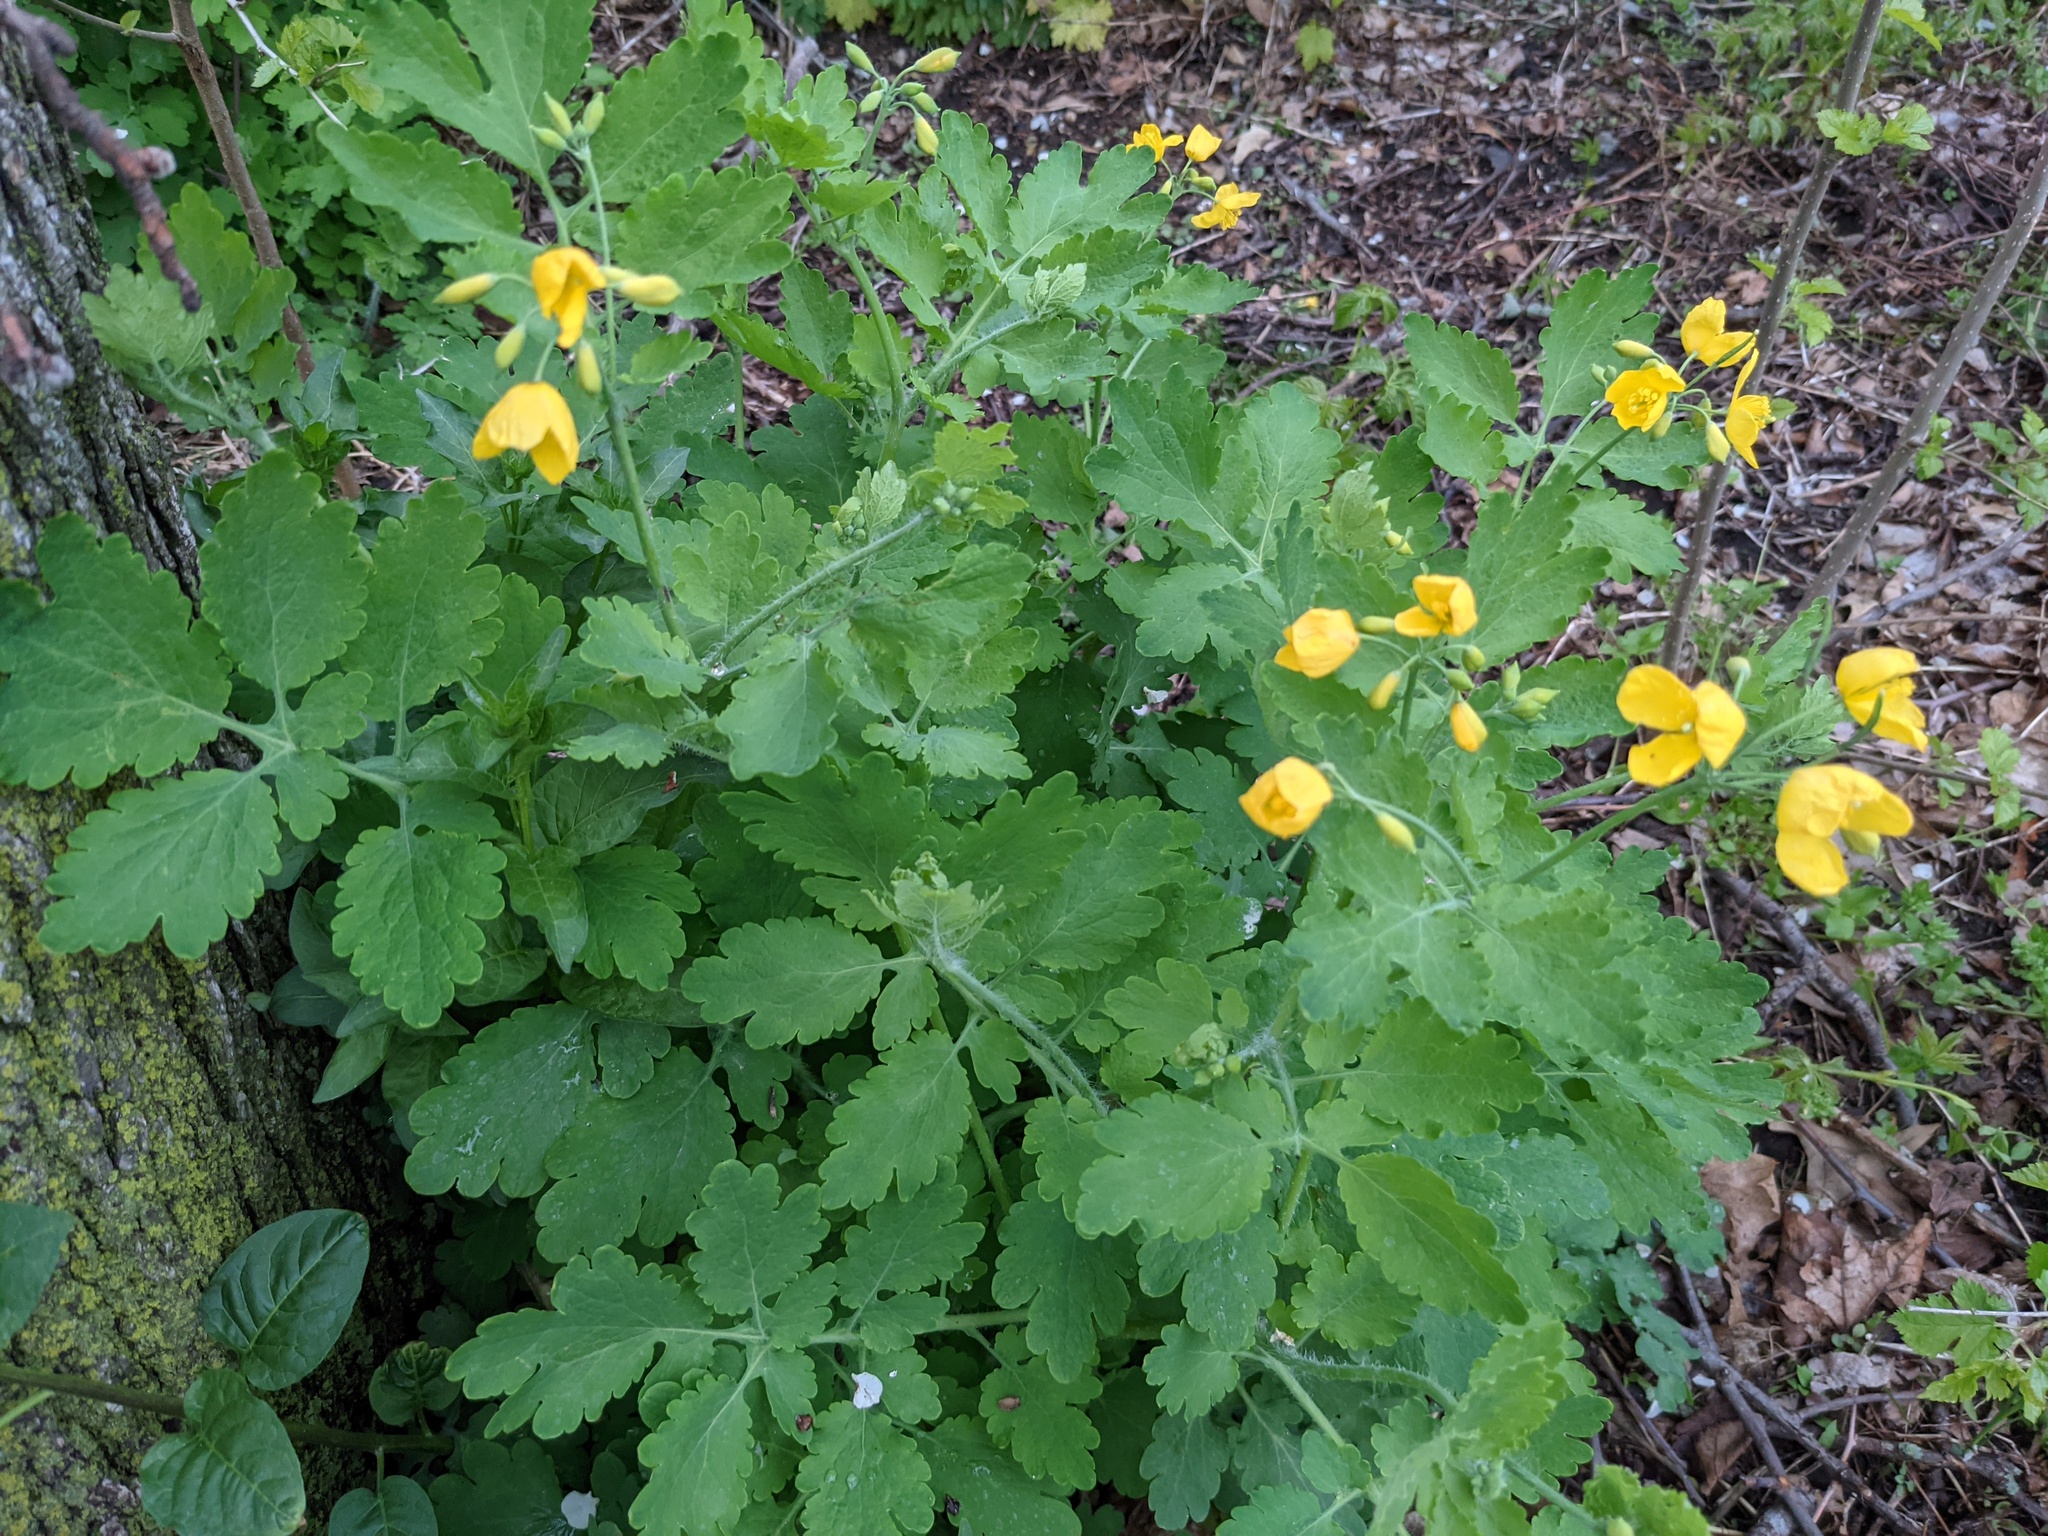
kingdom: Plantae
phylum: Tracheophyta
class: Magnoliopsida
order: Ranunculales
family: Papaveraceae
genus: Chelidonium
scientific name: Chelidonium majus
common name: Greater celandine
